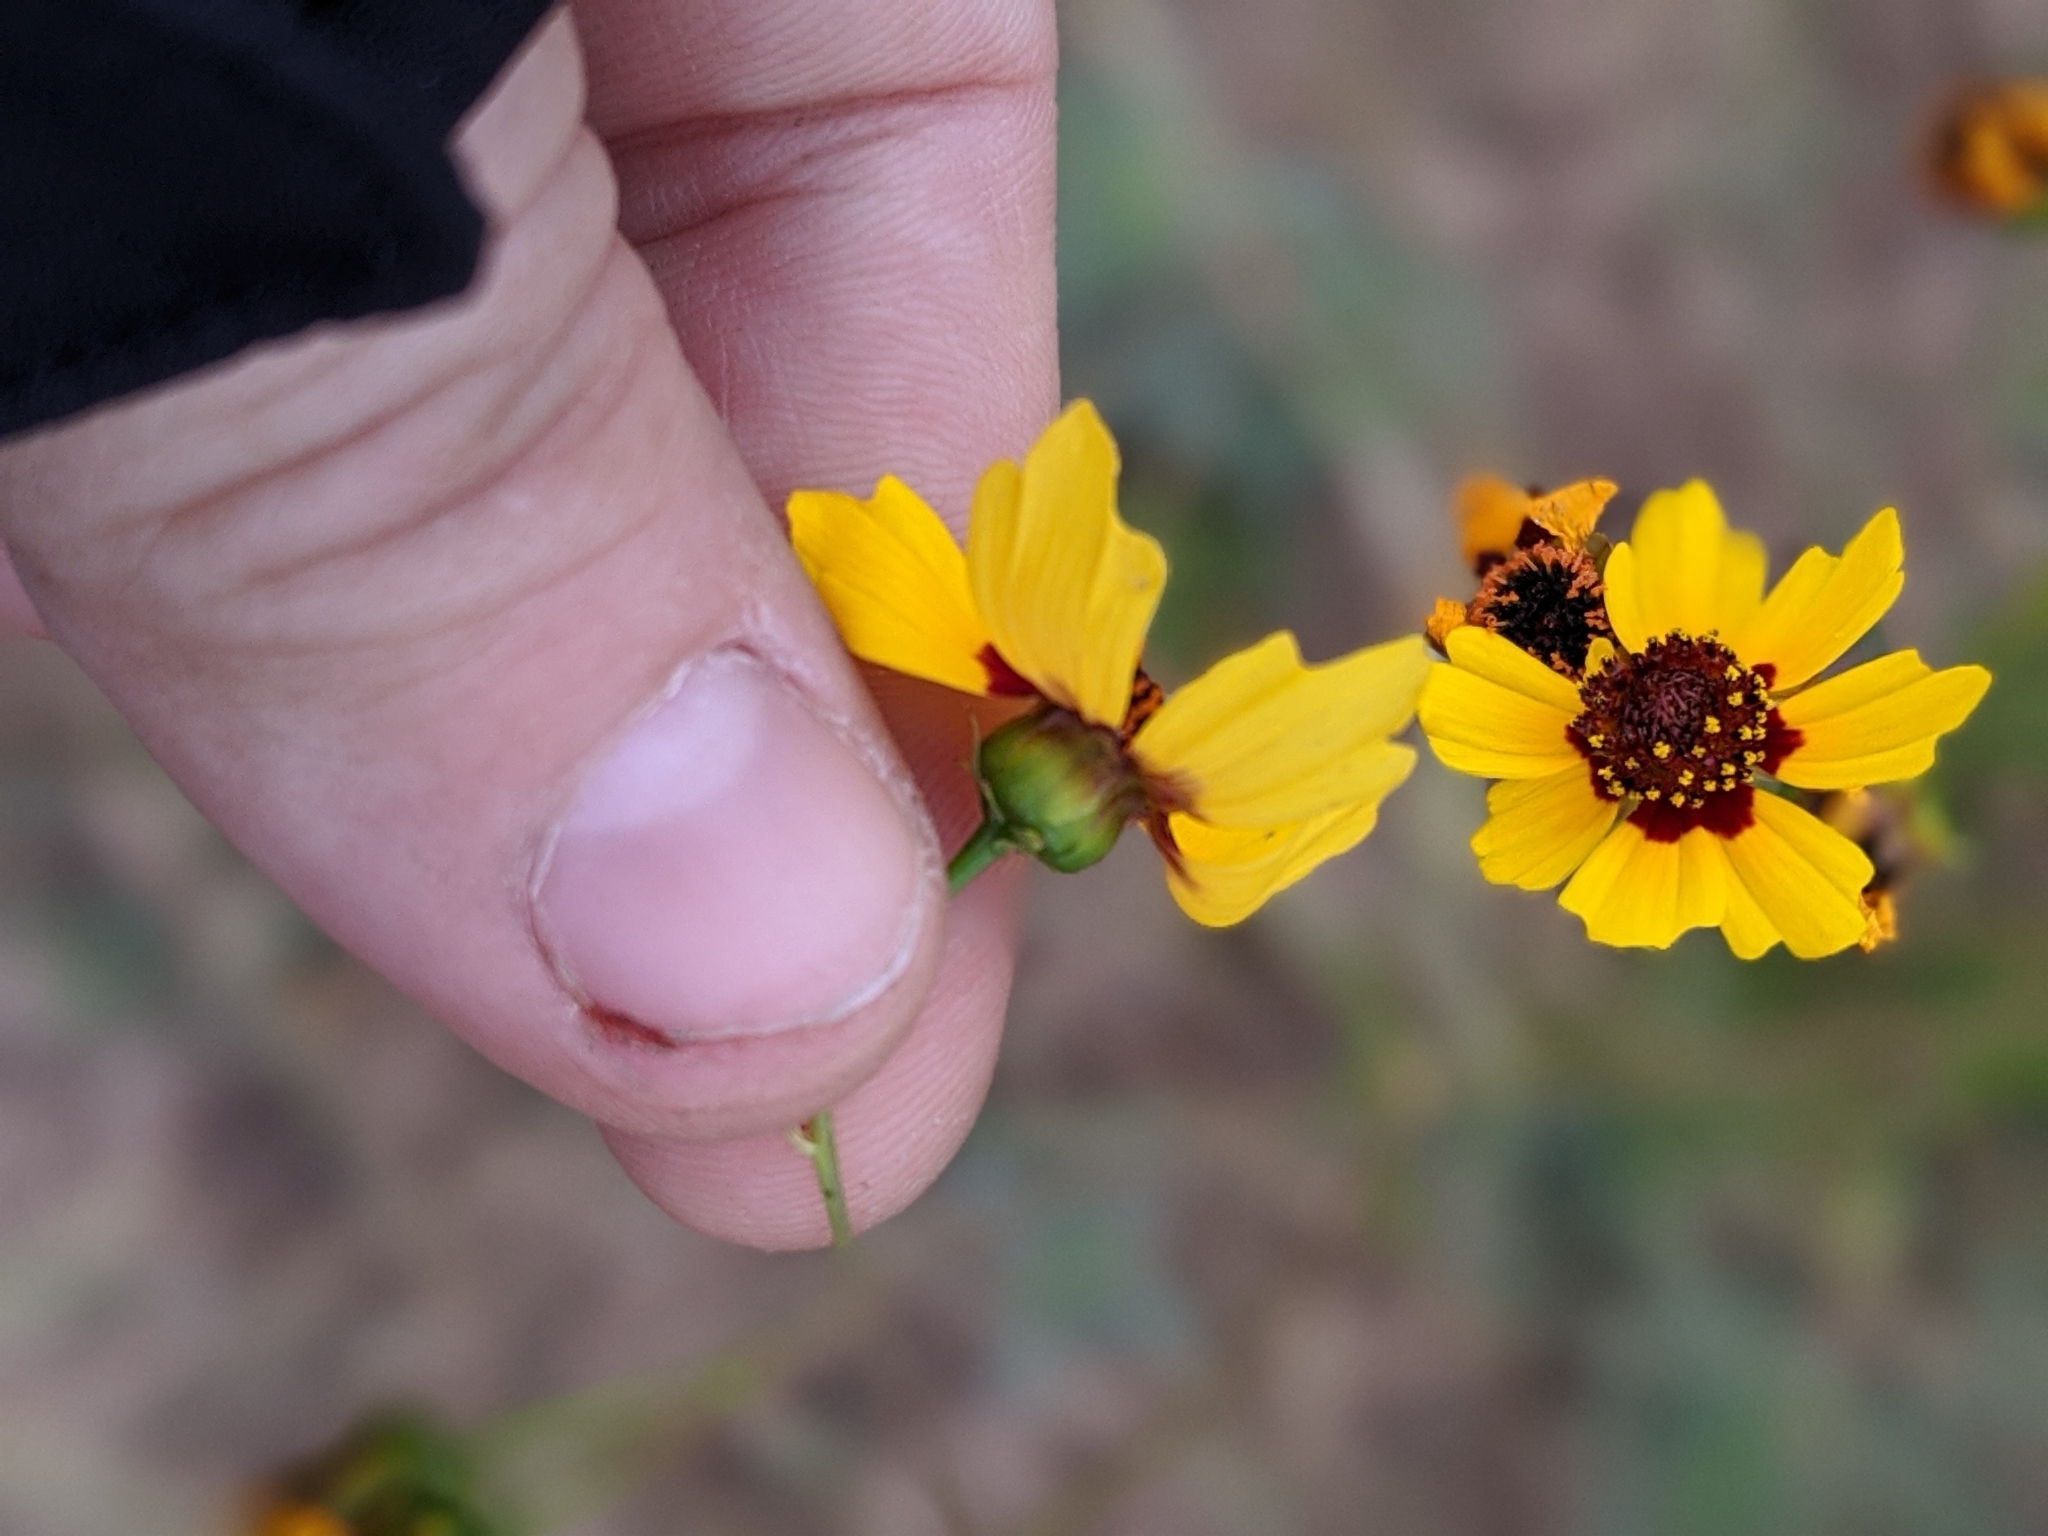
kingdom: Plantae
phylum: Tracheophyta
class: Magnoliopsida
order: Asterales
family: Asteraceae
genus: Coreopsis
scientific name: Coreopsis tinctoria
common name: Garden tickseed
